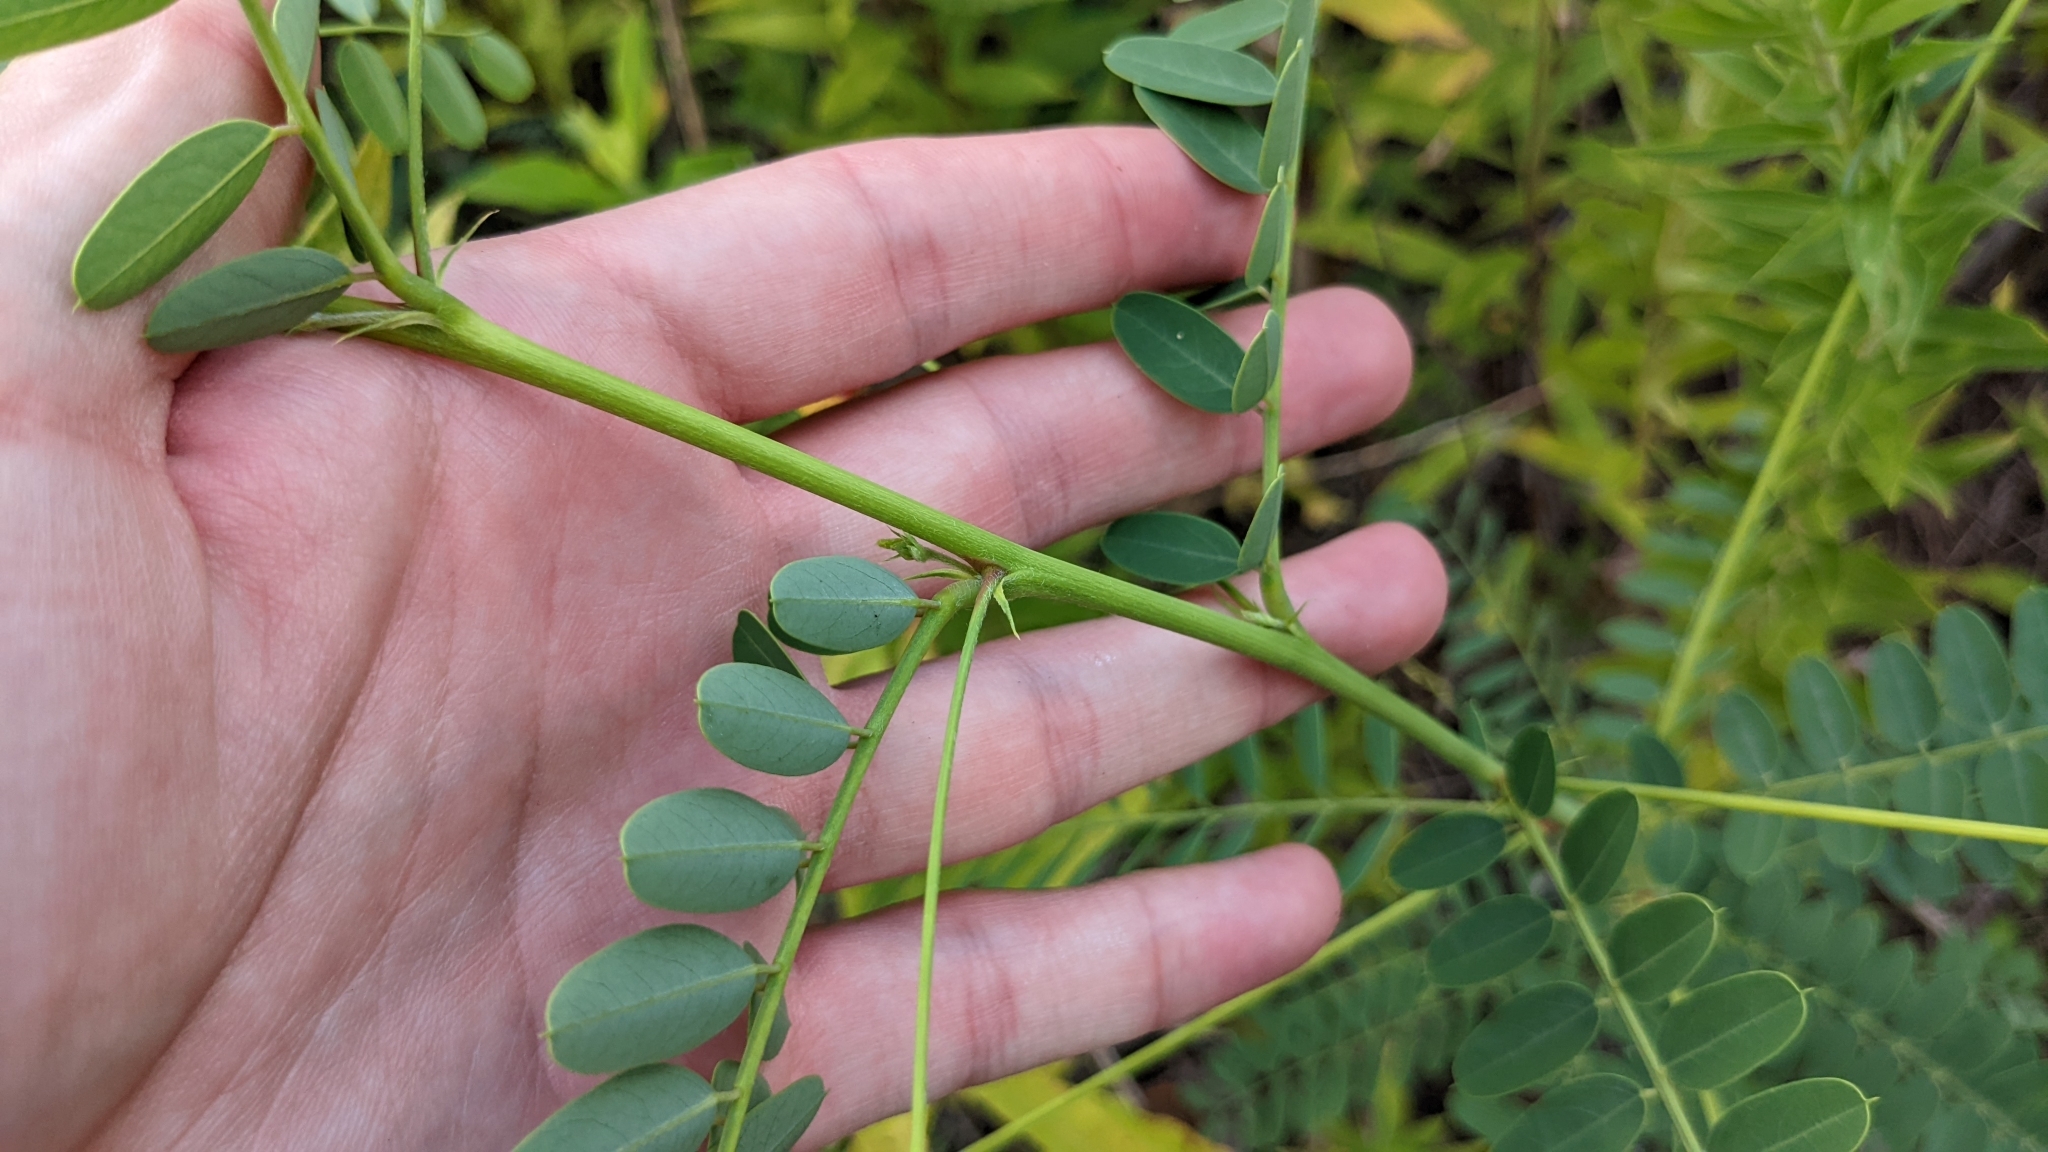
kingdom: Plantae
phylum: Tracheophyta
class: Magnoliopsida
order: Fabales
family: Fabaceae
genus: Sesbania
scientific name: Sesbania vesicaria
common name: Bagpod
